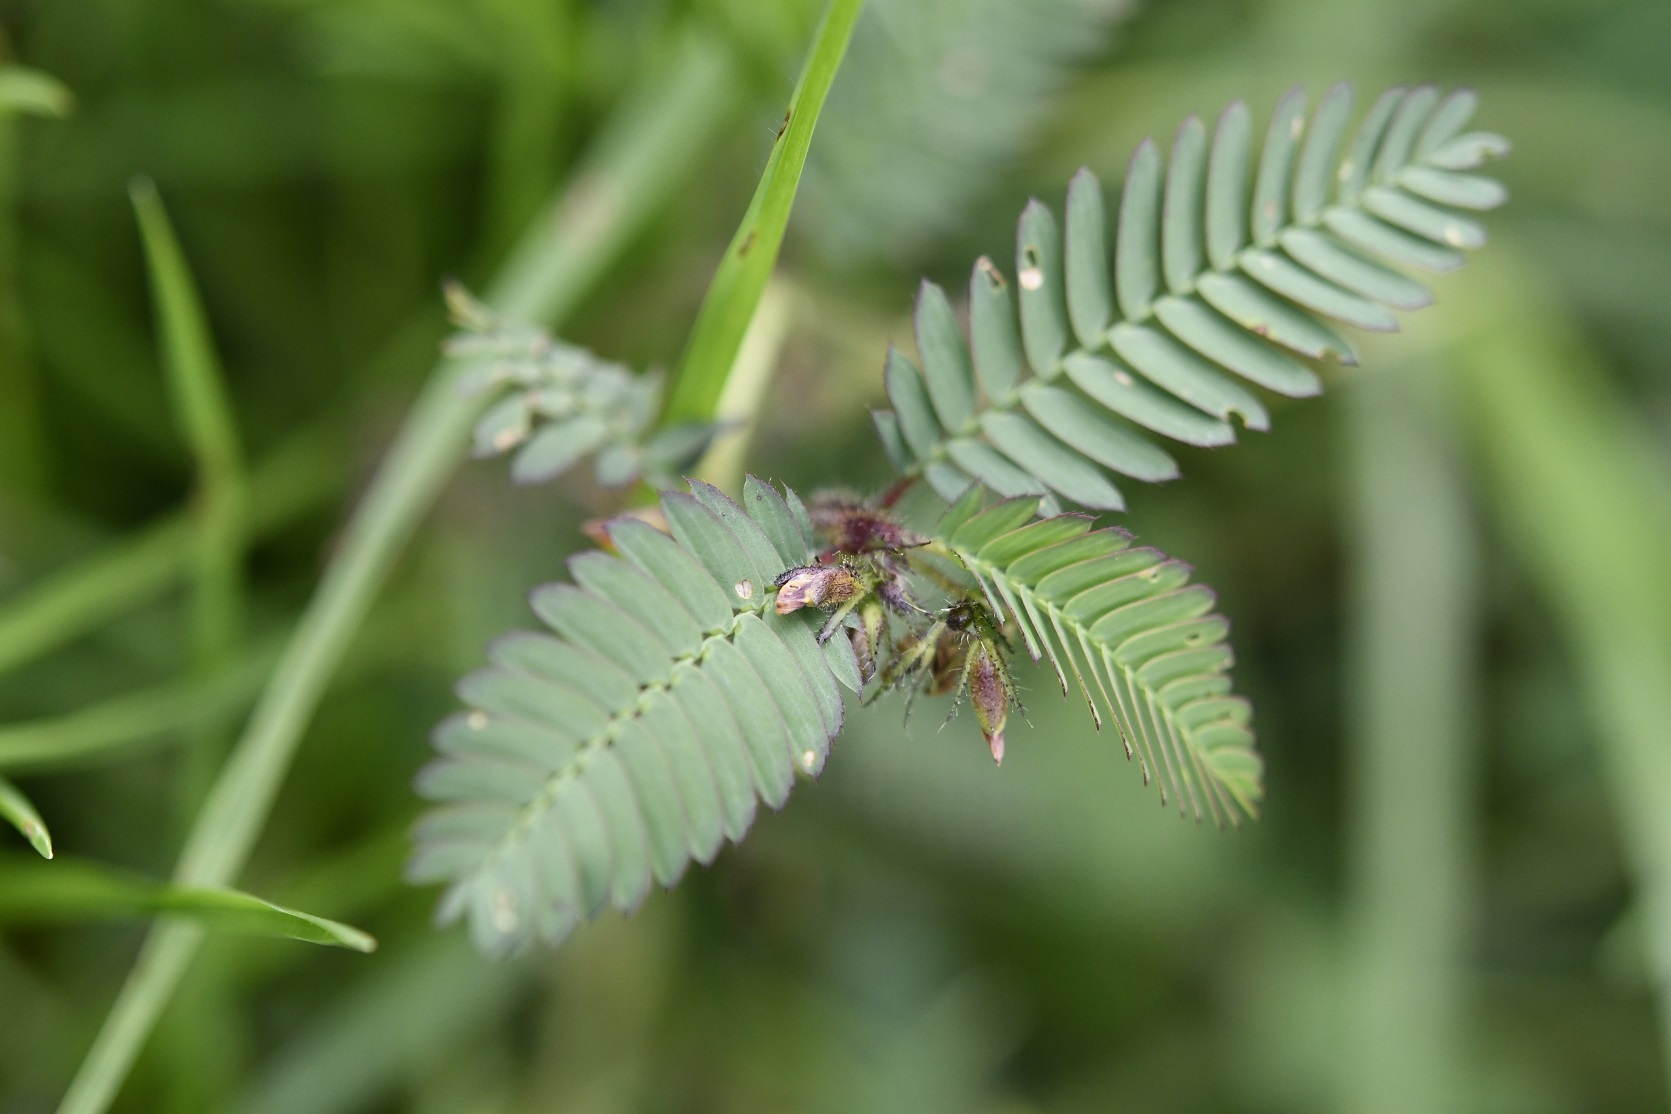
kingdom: Plantae
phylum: Tracheophyta
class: Magnoliopsida
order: Fabales
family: Fabaceae
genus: Aeschynomene
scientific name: Aeschynomene villosa
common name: Hairy-jointvetch
